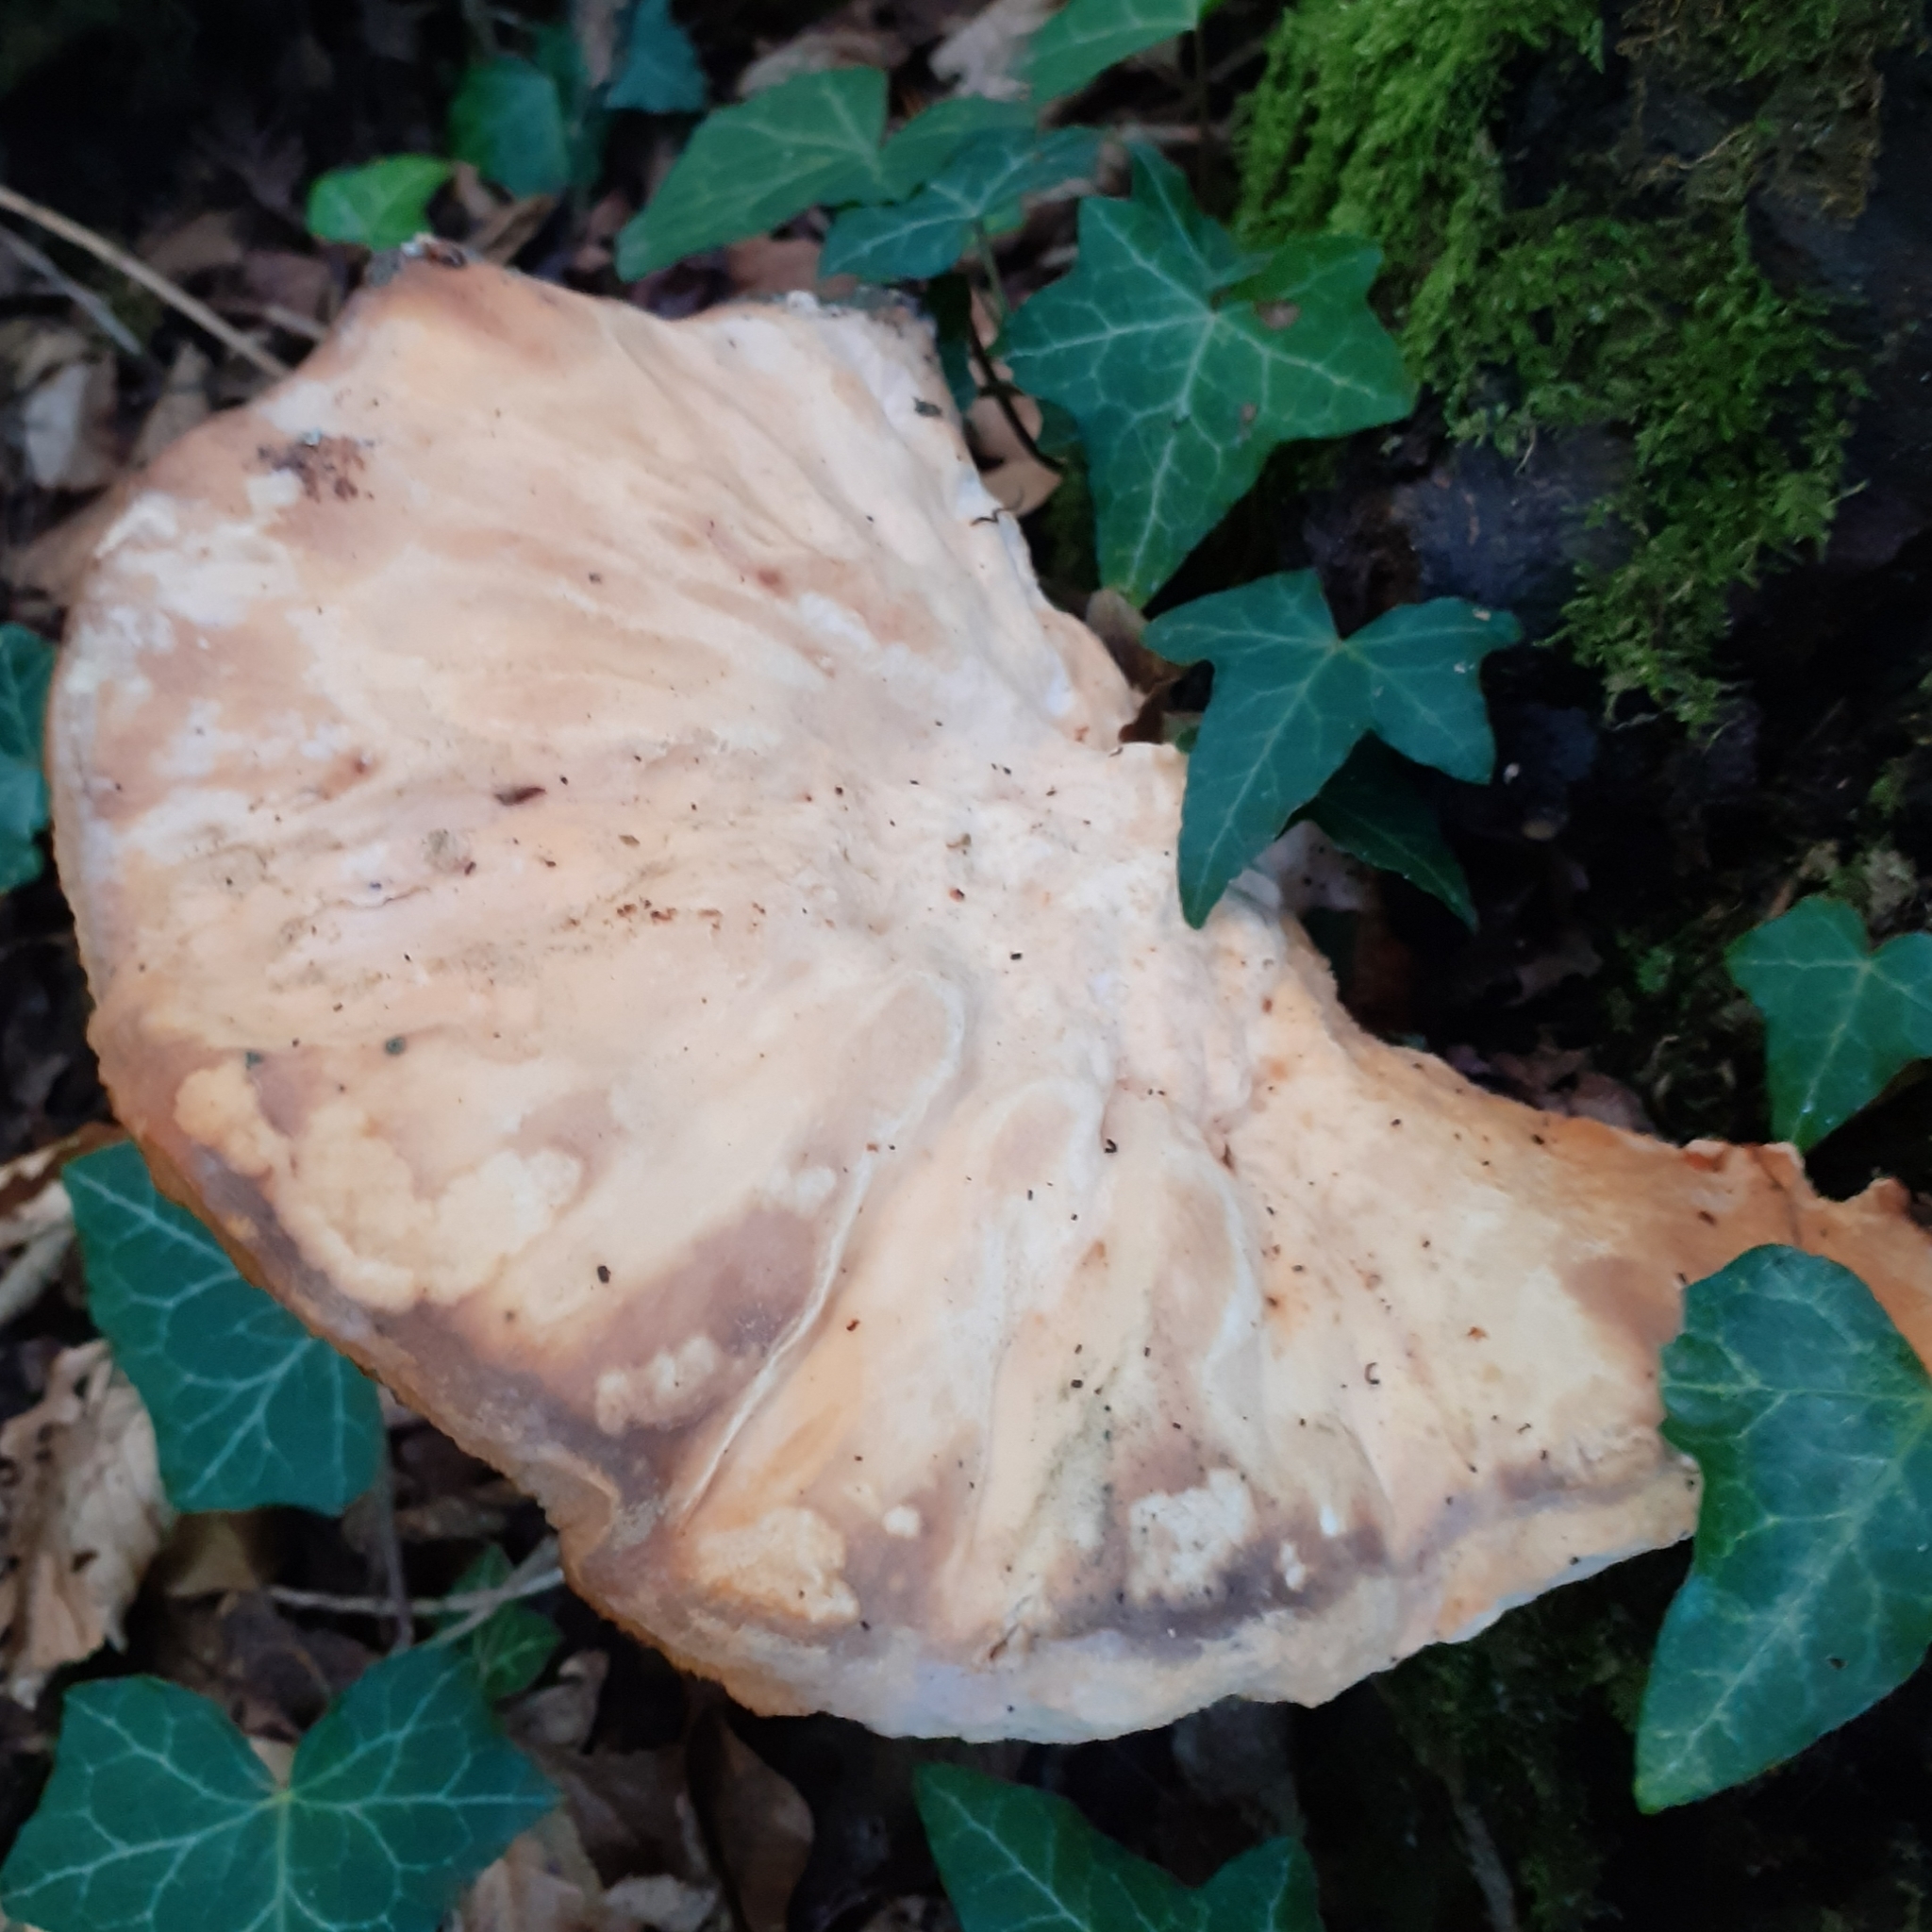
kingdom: Fungi
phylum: Basidiomycota
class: Agaricomycetes
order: Polyporales
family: Laetiporaceae
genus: Laetiporus
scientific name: Laetiporus sulphureus
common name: Chicken of the woods
